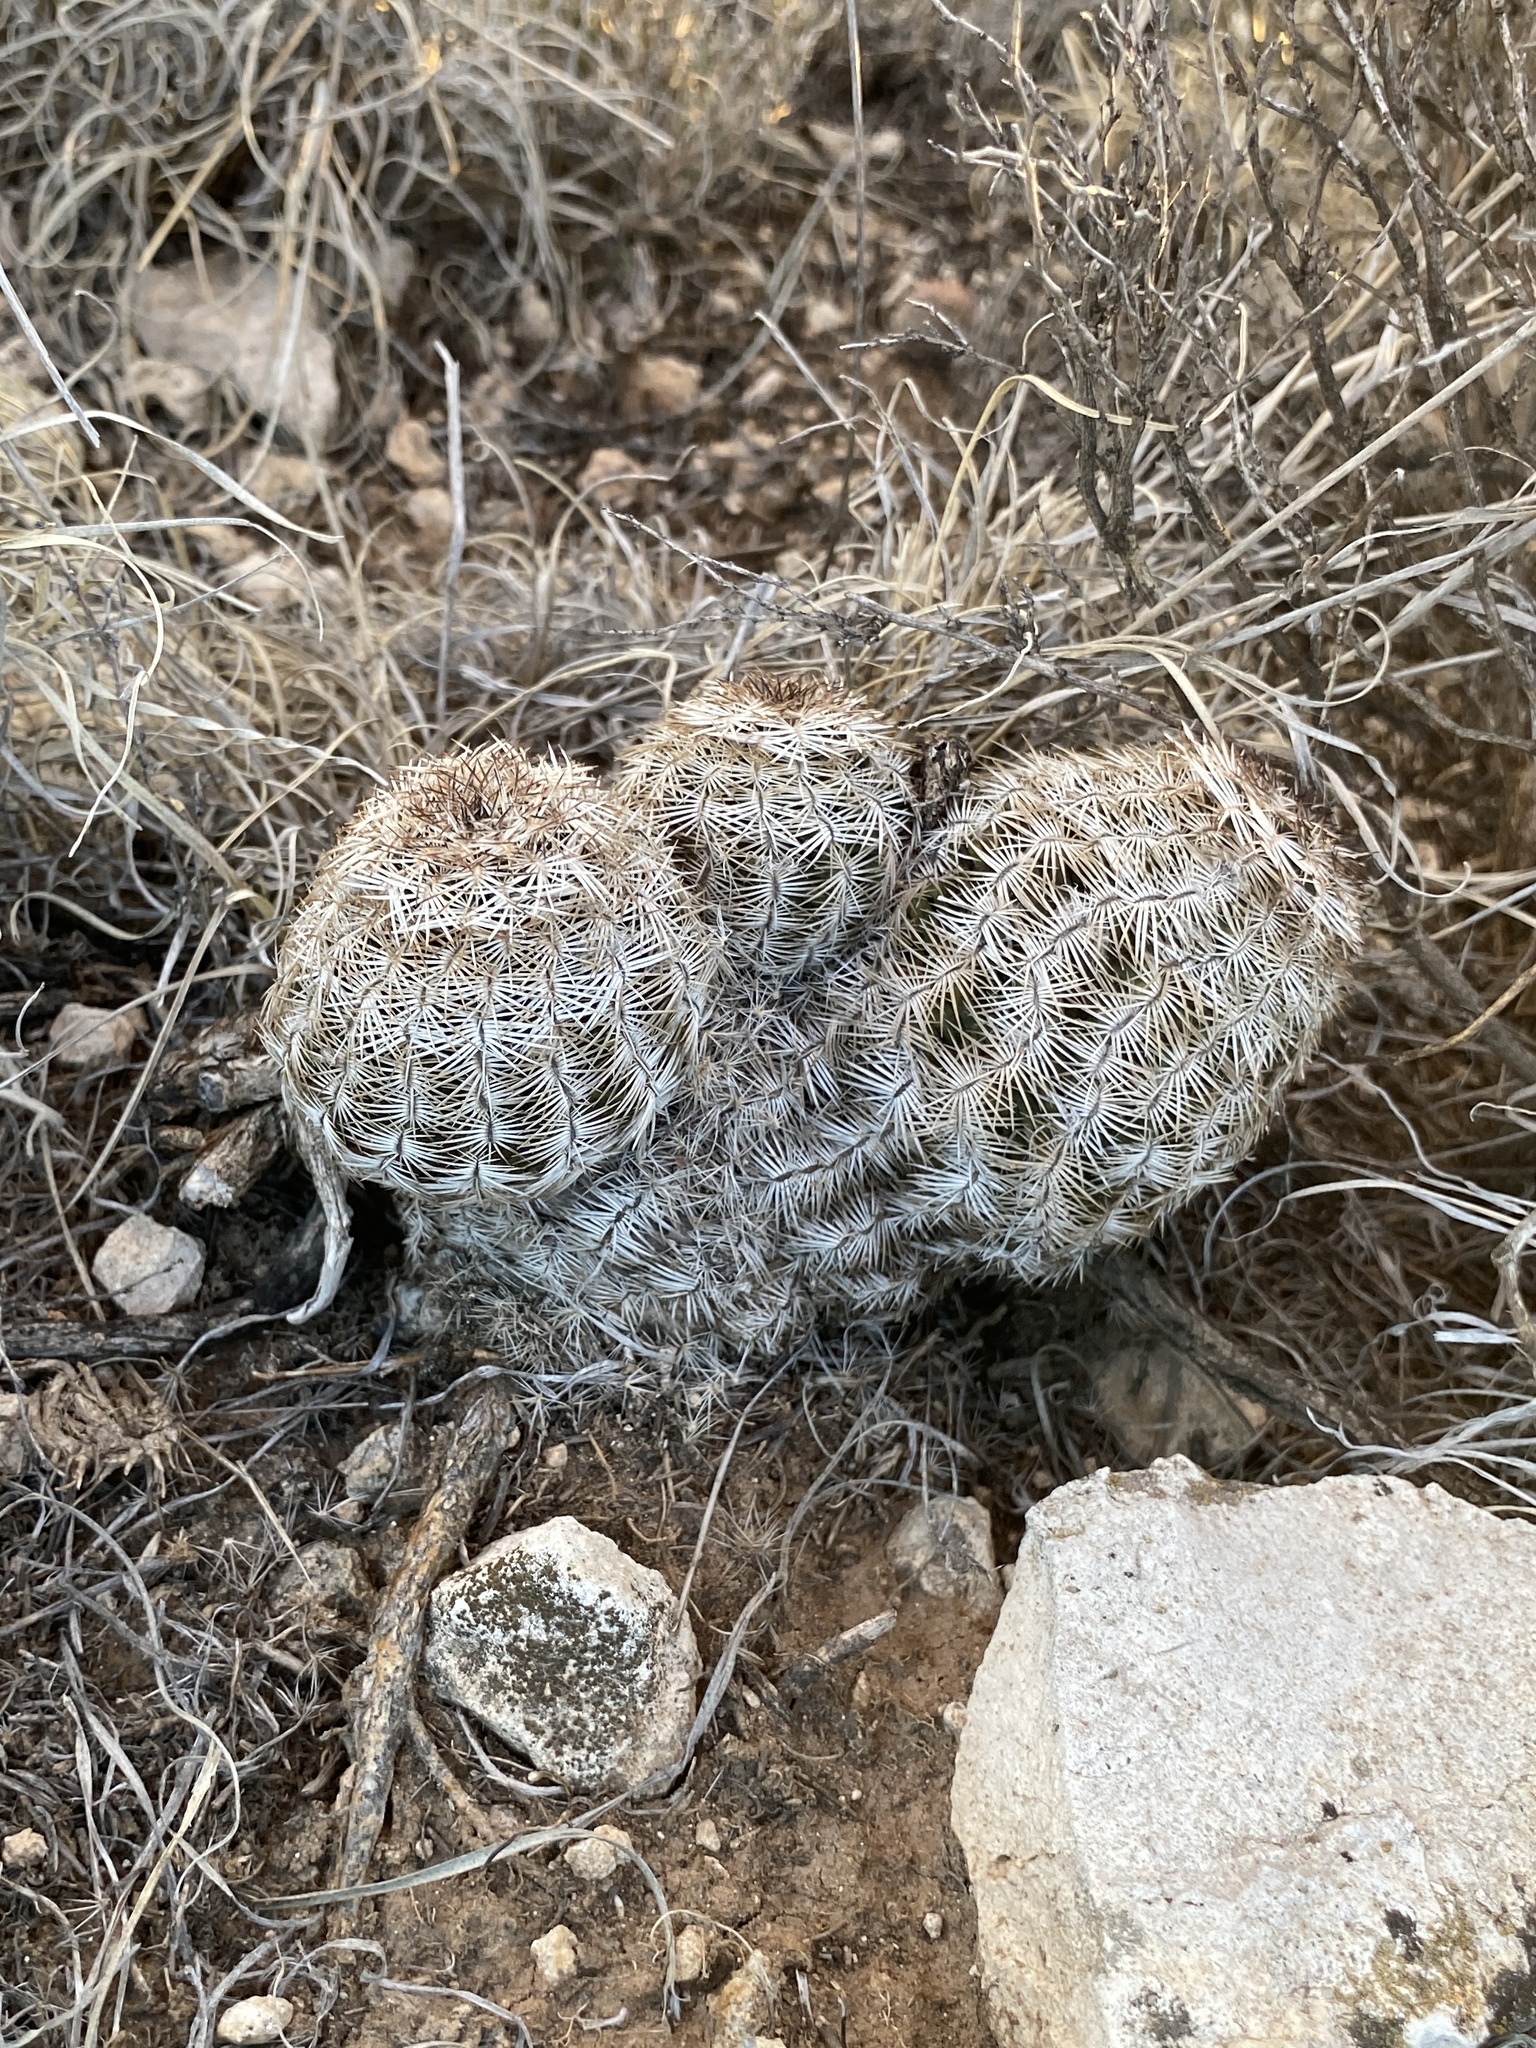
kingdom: Plantae
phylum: Tracheophyta
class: Magnoliopsida
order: Caryophyllales
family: Cactaceae
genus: Echinocereus
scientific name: Echinocereus reichenbachii
